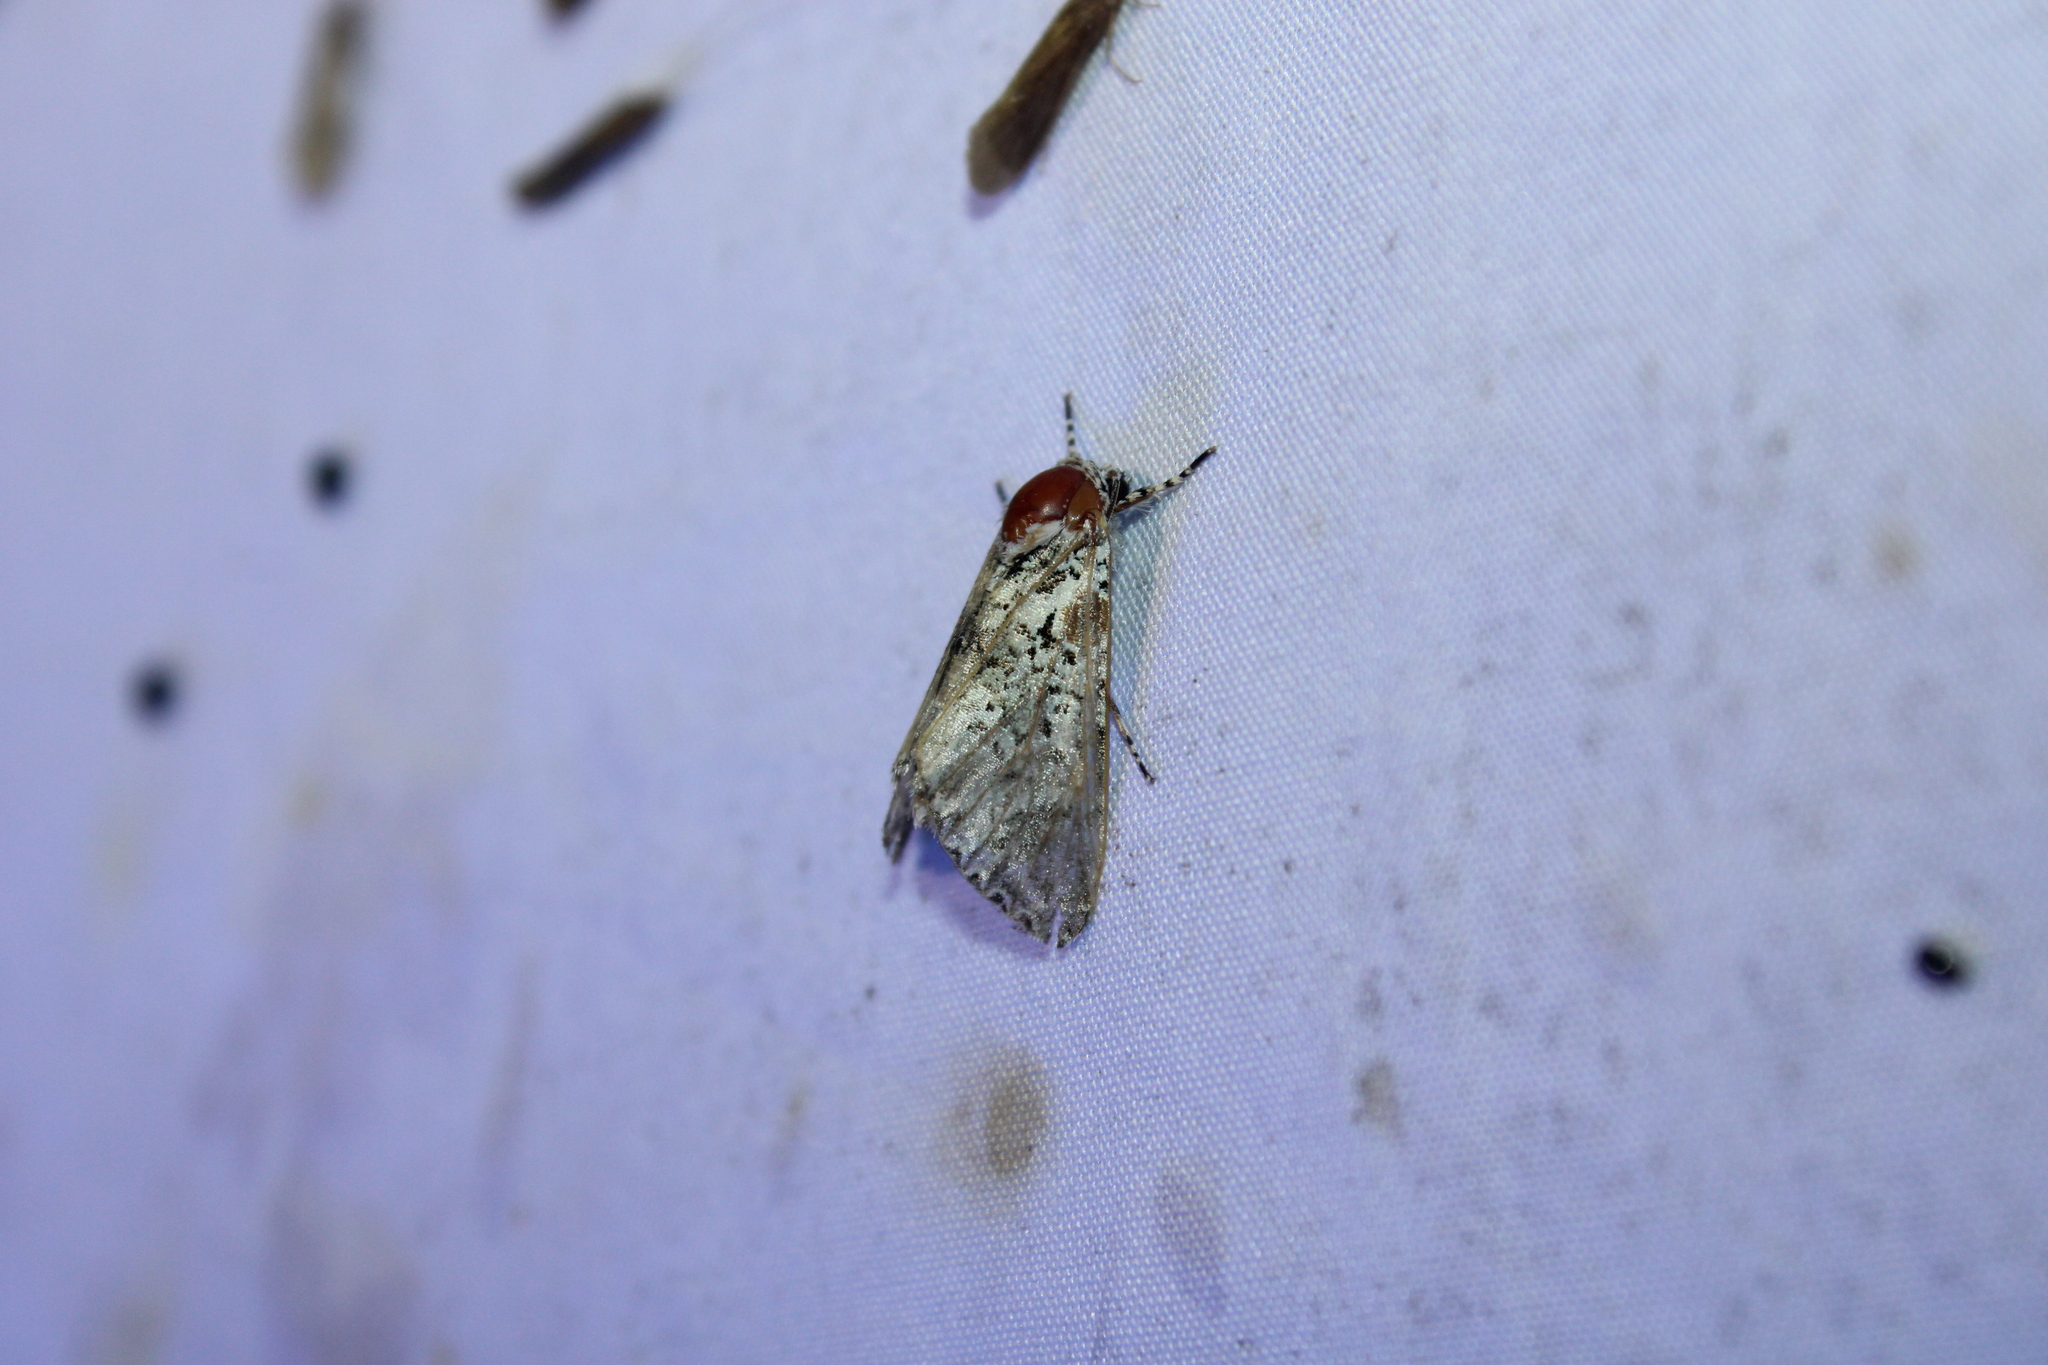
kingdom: Animalia
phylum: Arthropoda
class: Insecta
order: Lepidoptera
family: Noctuidae
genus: Harrisimemna
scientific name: Harrisimemna trisignata
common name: Harris threespot
